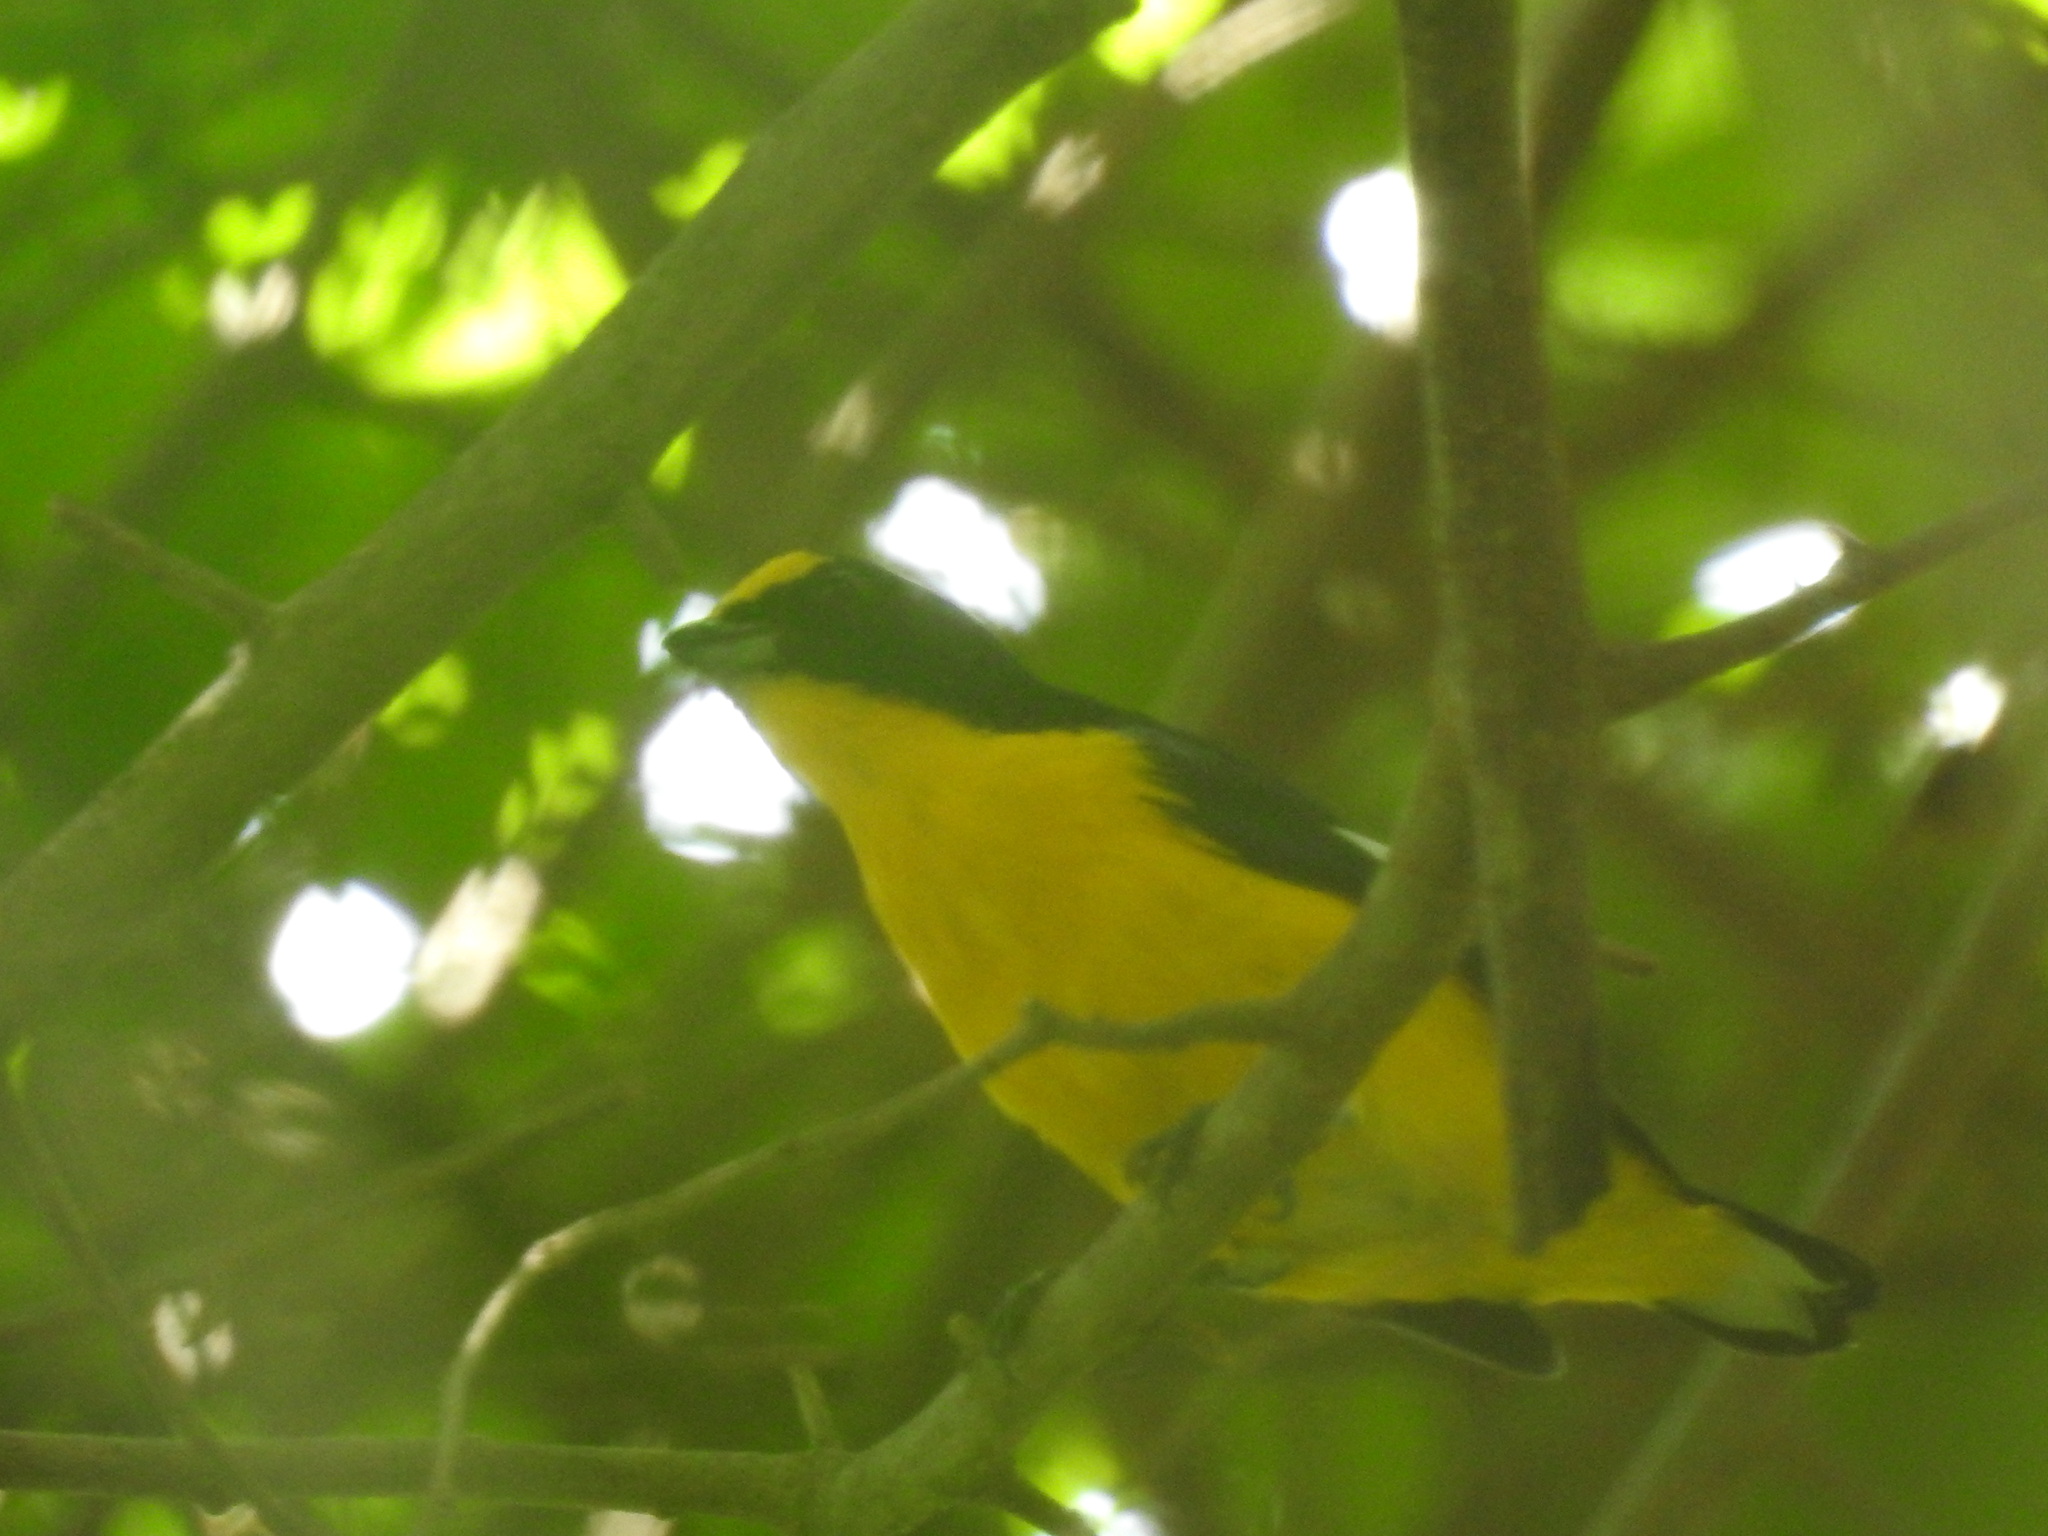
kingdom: Animalia
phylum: Chordata
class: Aves
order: Passeriformes
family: Fringillidae
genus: Euphonia
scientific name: Euphonia hirundinacea
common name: Yellow-throated euphonia
